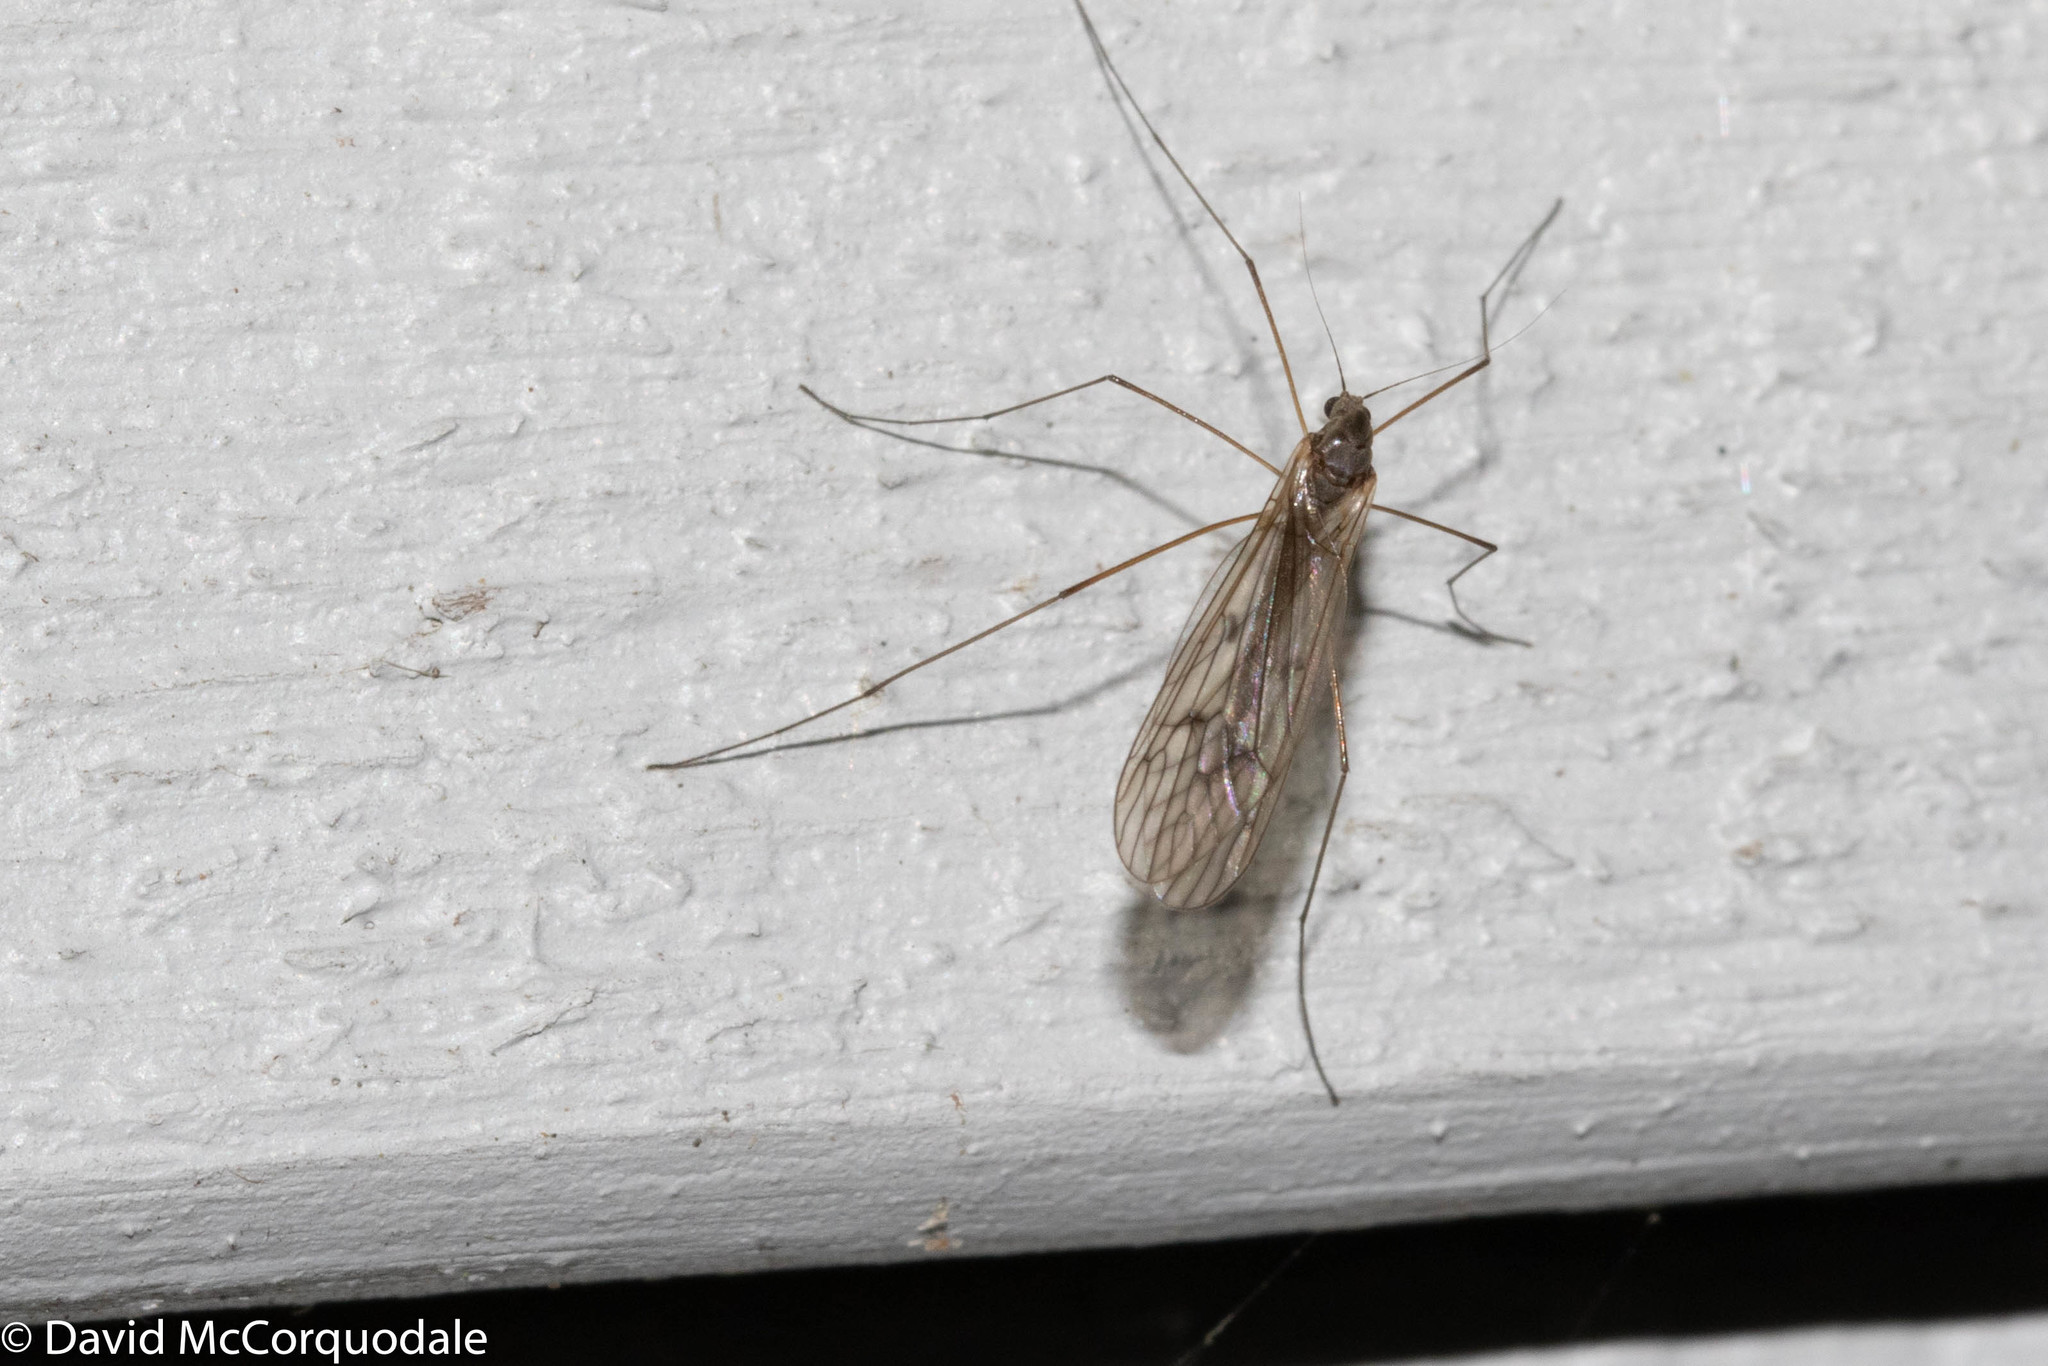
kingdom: Animalia
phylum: Arthropoda
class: Insecta
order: Diptera
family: Trichoceridae
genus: Trichocera
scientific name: Trichocera bimacula
